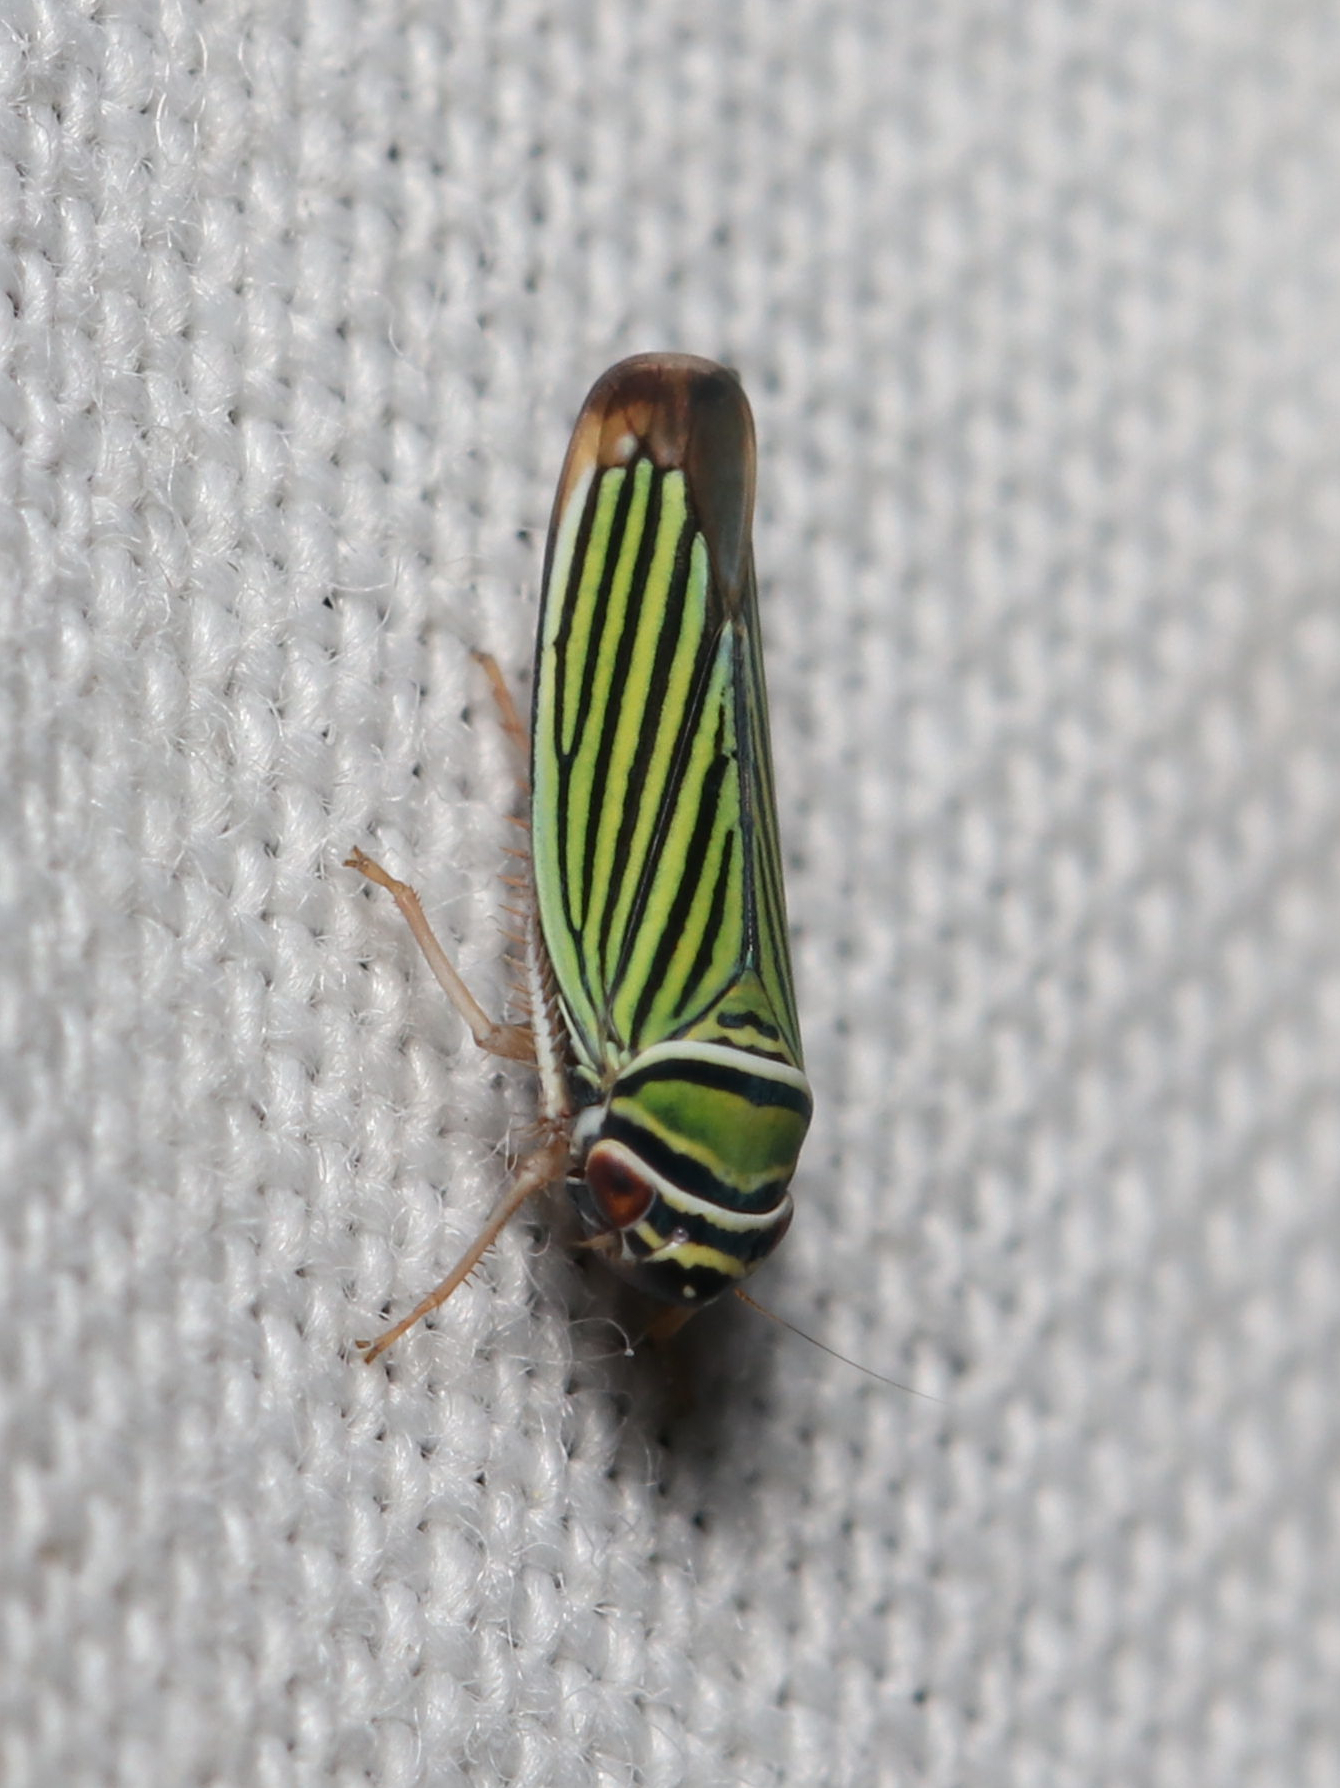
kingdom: Animalia
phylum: Arthropoda
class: Insecta
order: Hemiptera
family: Cicadellidae
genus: Tylozygus
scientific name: Tylozygus bifidus
